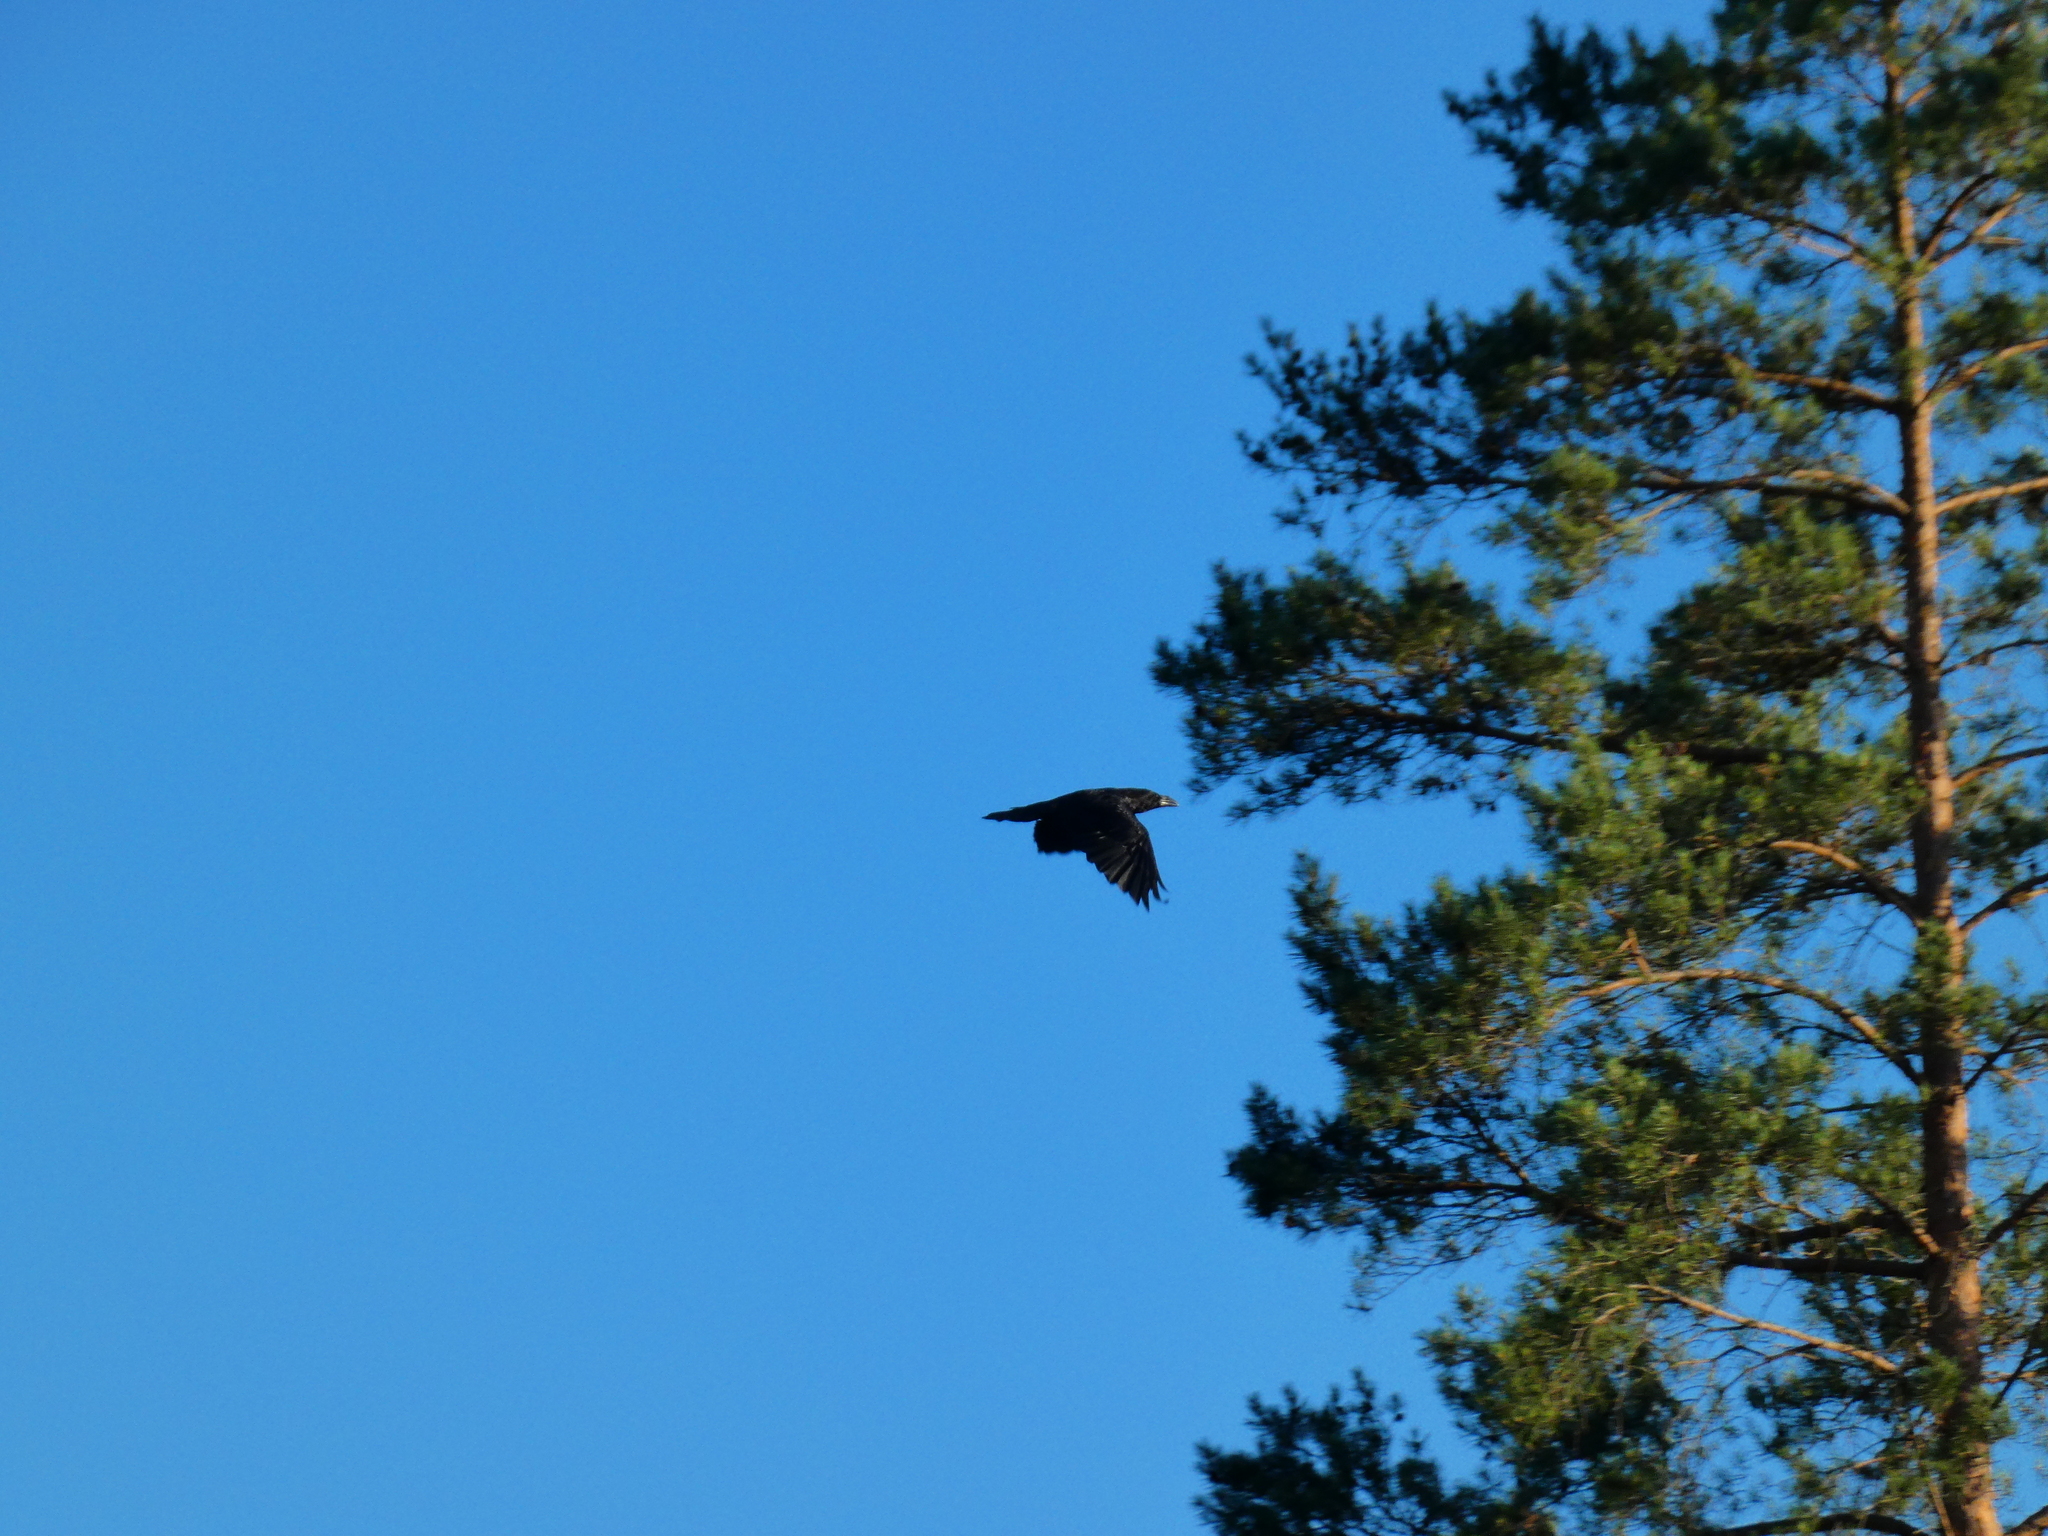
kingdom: Animalia
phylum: Chordata
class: Aves
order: Passeriformes
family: Corvidae
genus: Corvus
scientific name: Corvus corax
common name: Common raven
